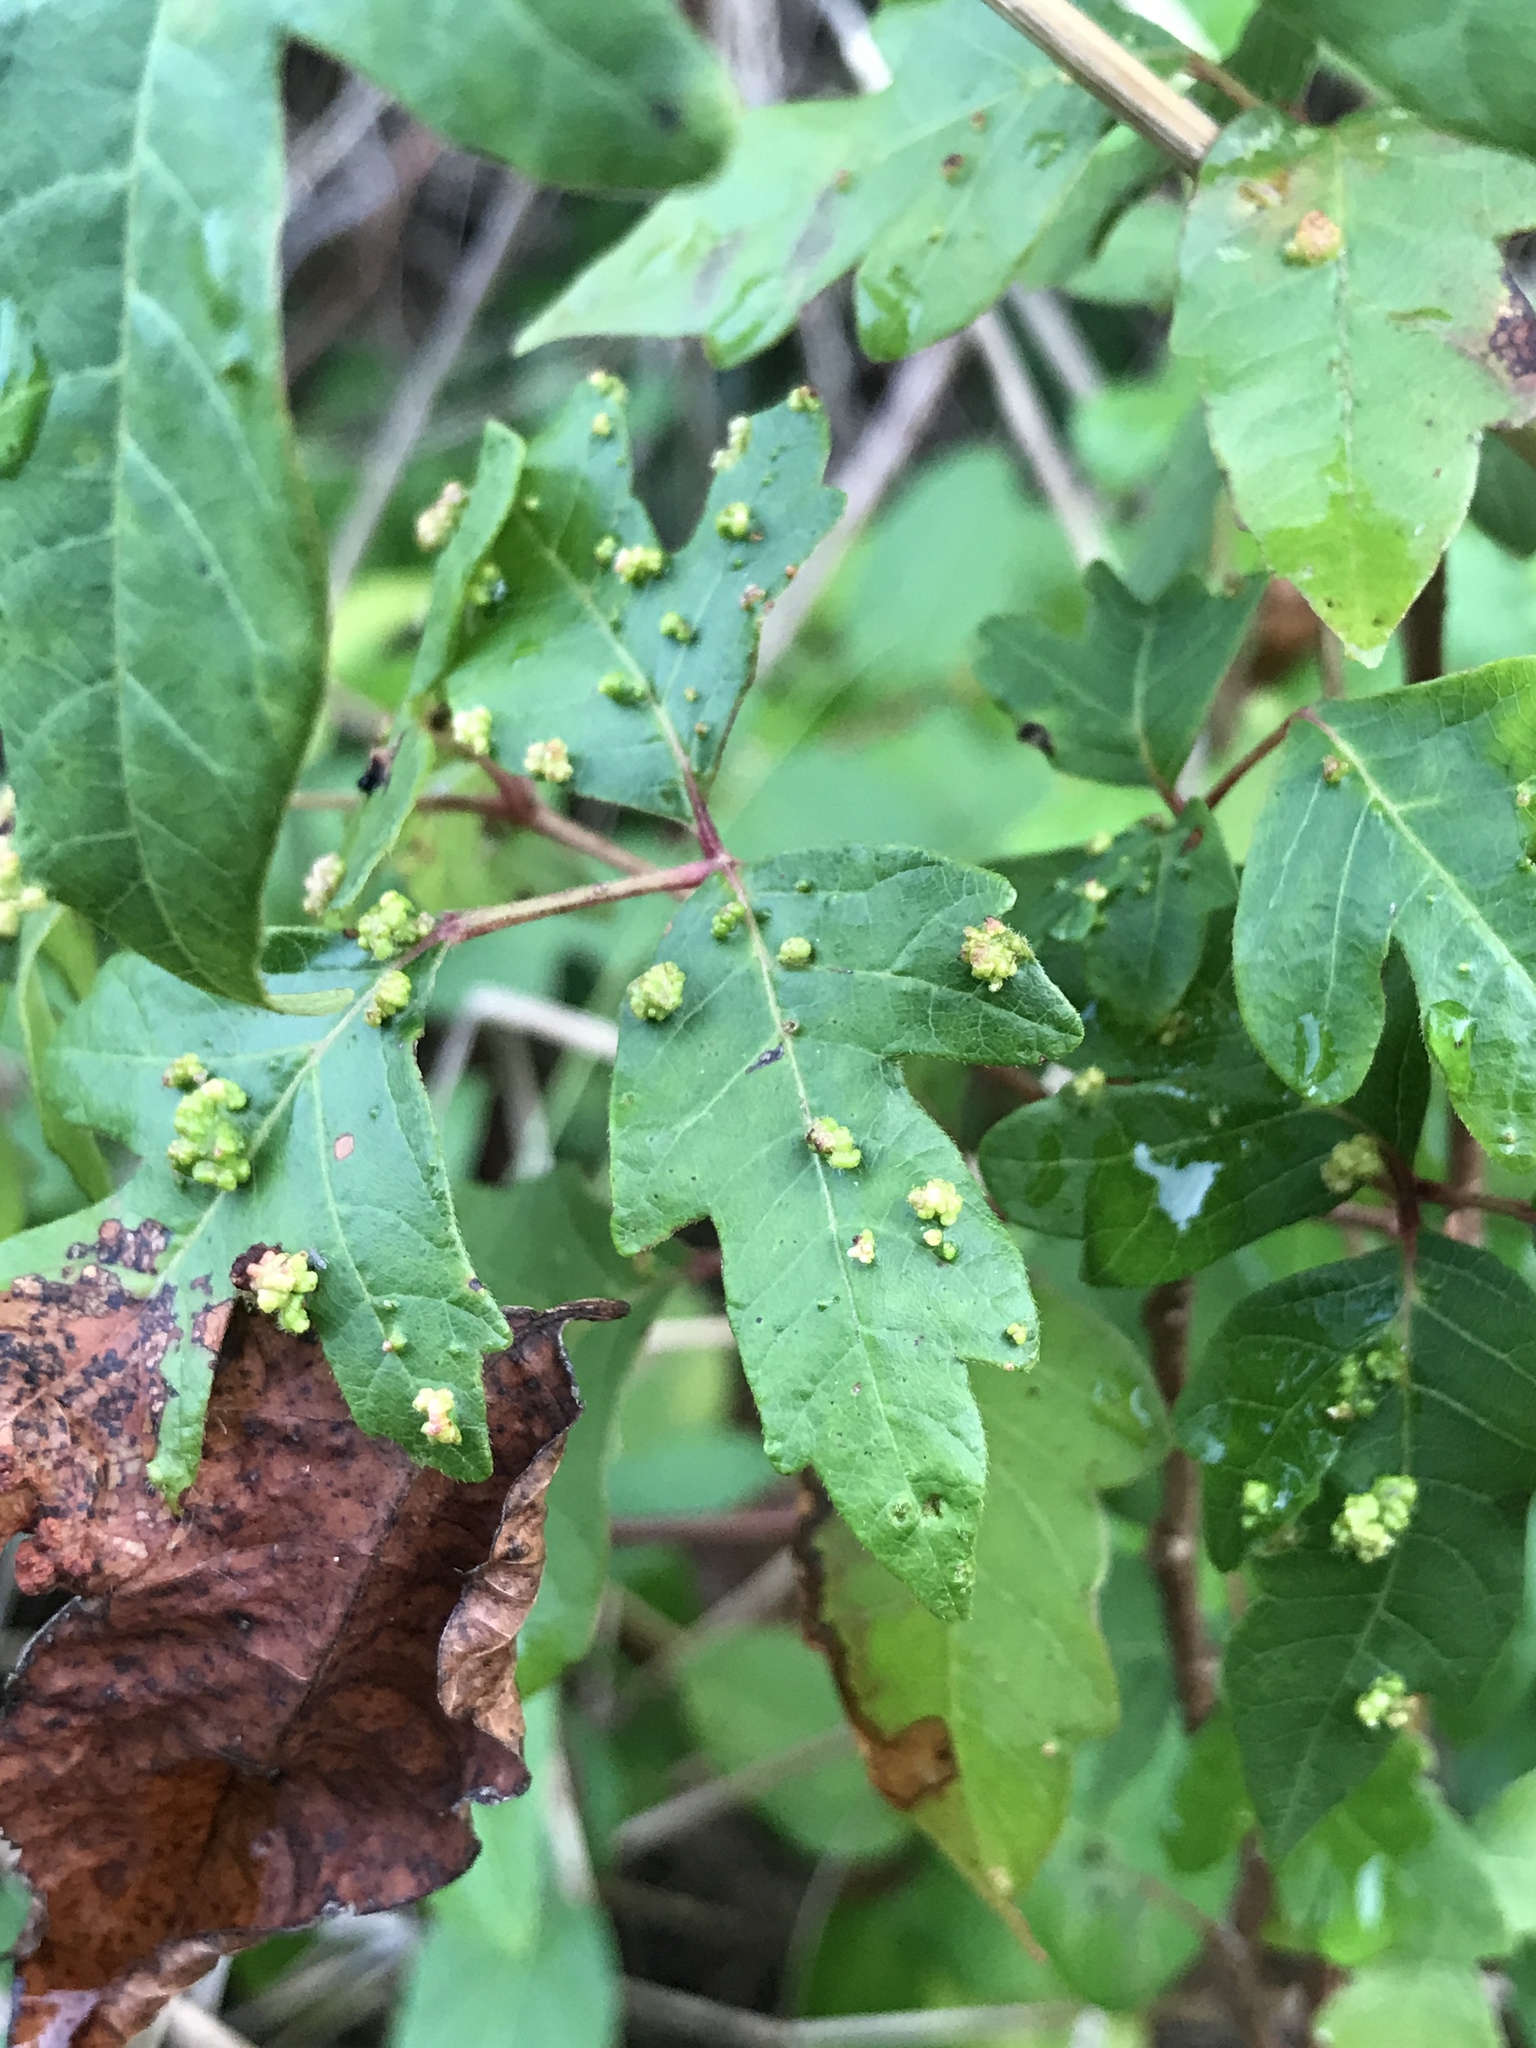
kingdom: Animalia
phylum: Arthropoda
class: Arachnida
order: Trombidiformes
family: Eriophyidae
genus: Aculops
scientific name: Aculops
